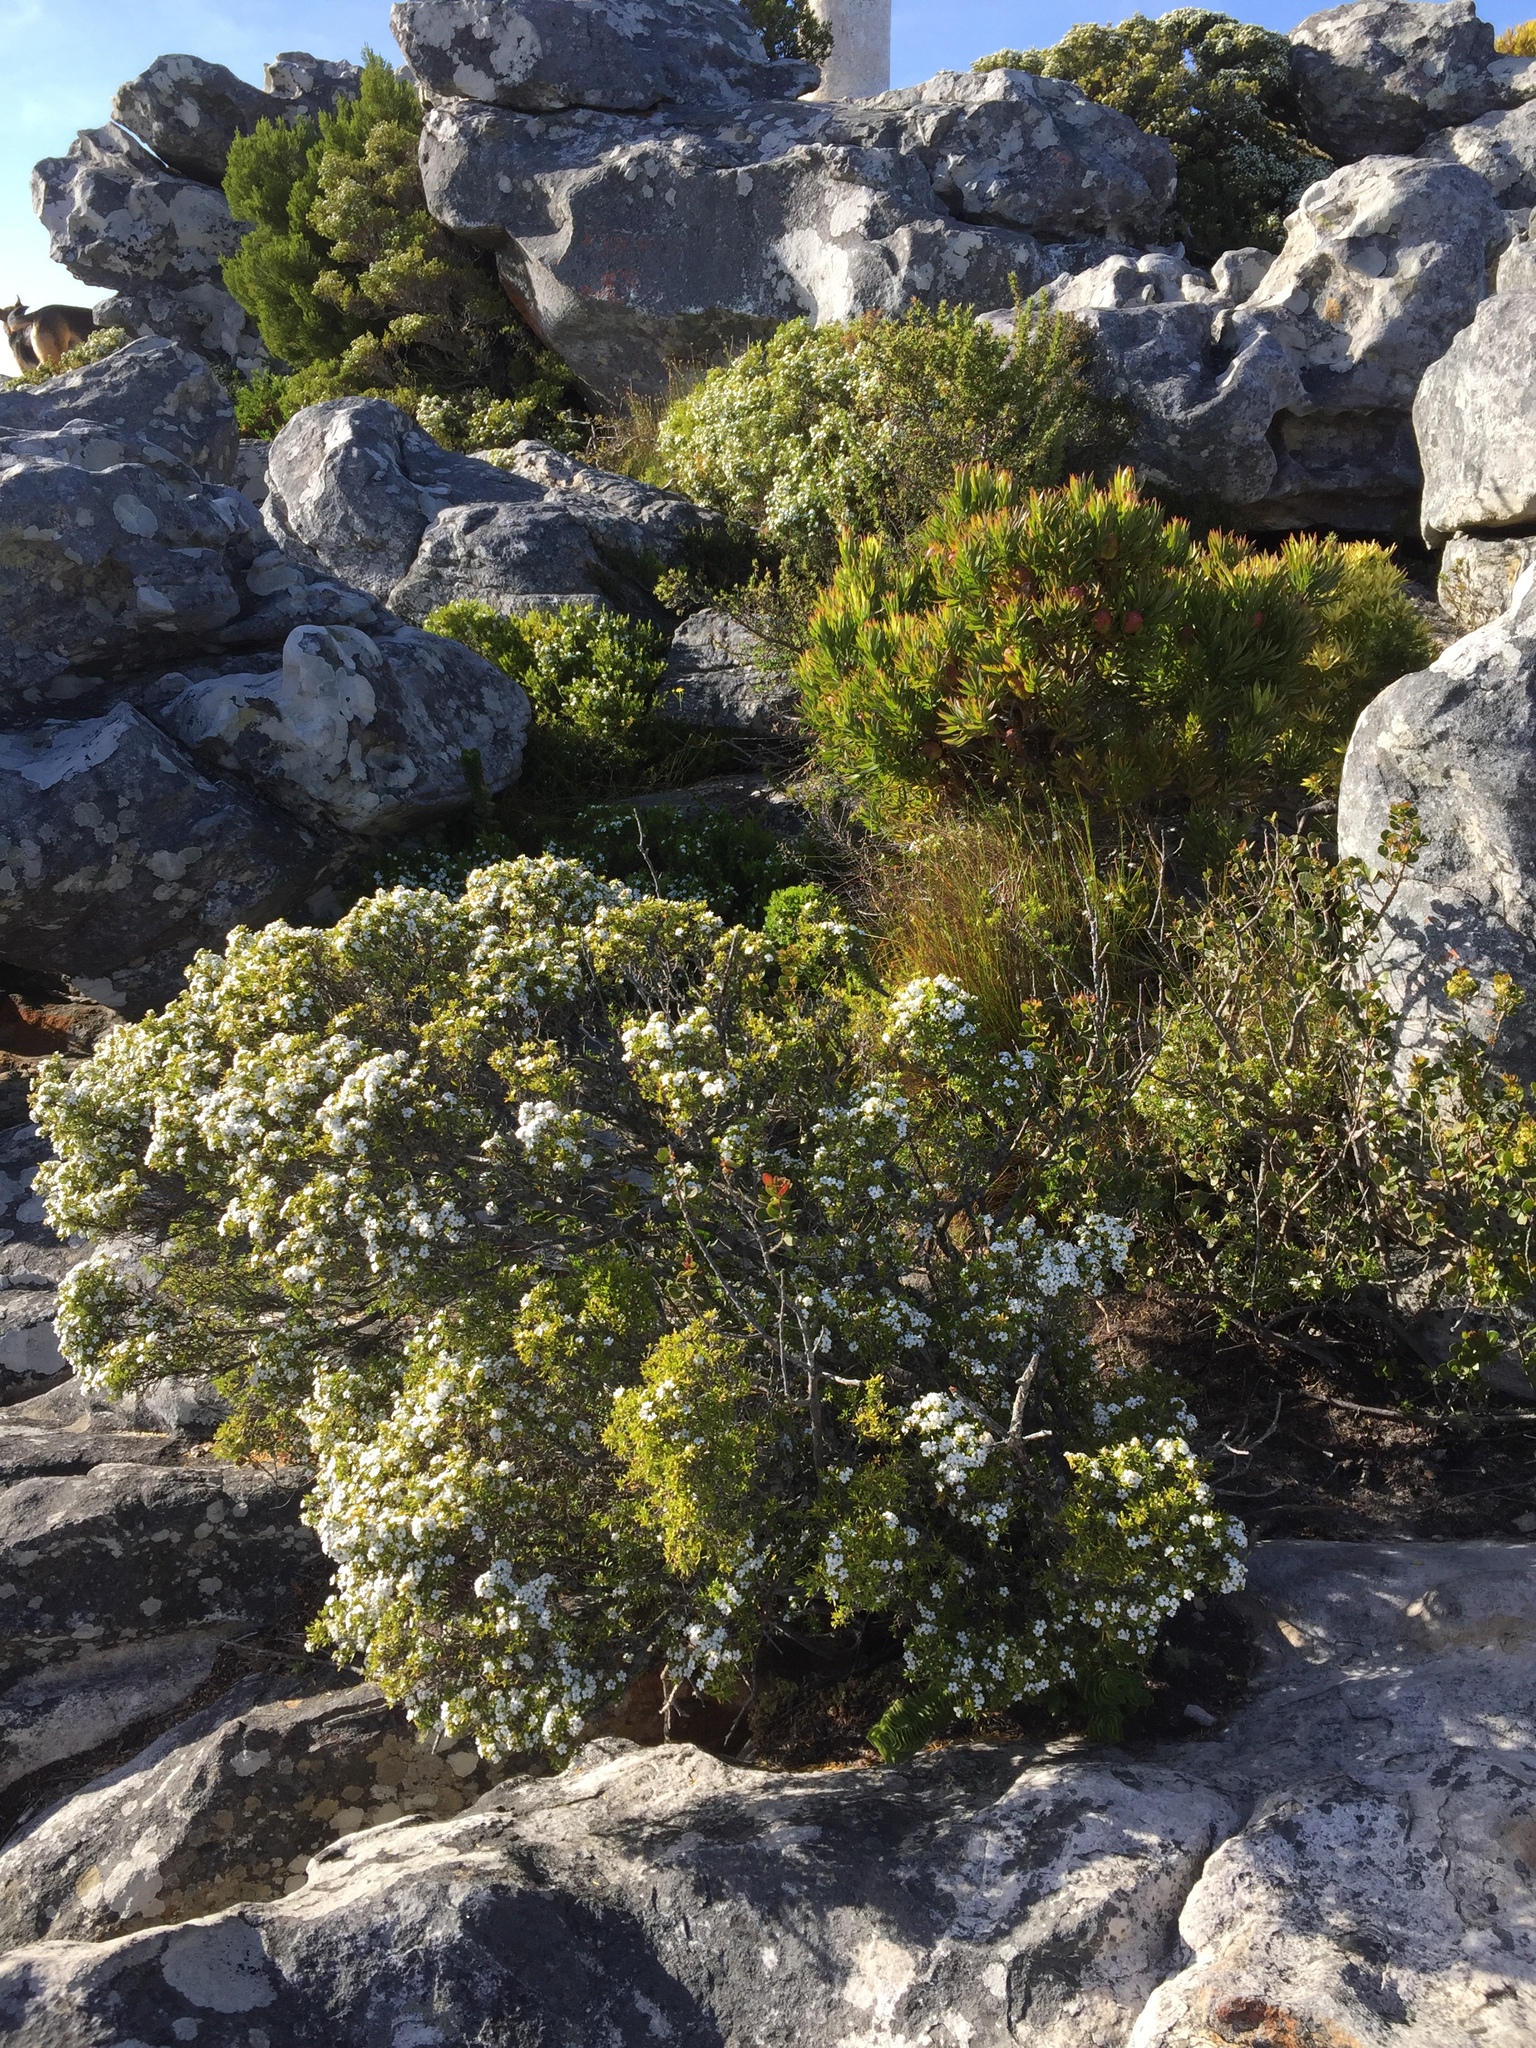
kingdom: Plantae
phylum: Tracheophyta
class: Magnoliopsida
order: Sapindales
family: Rutaceae
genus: Coleonema
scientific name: Coleonema album
